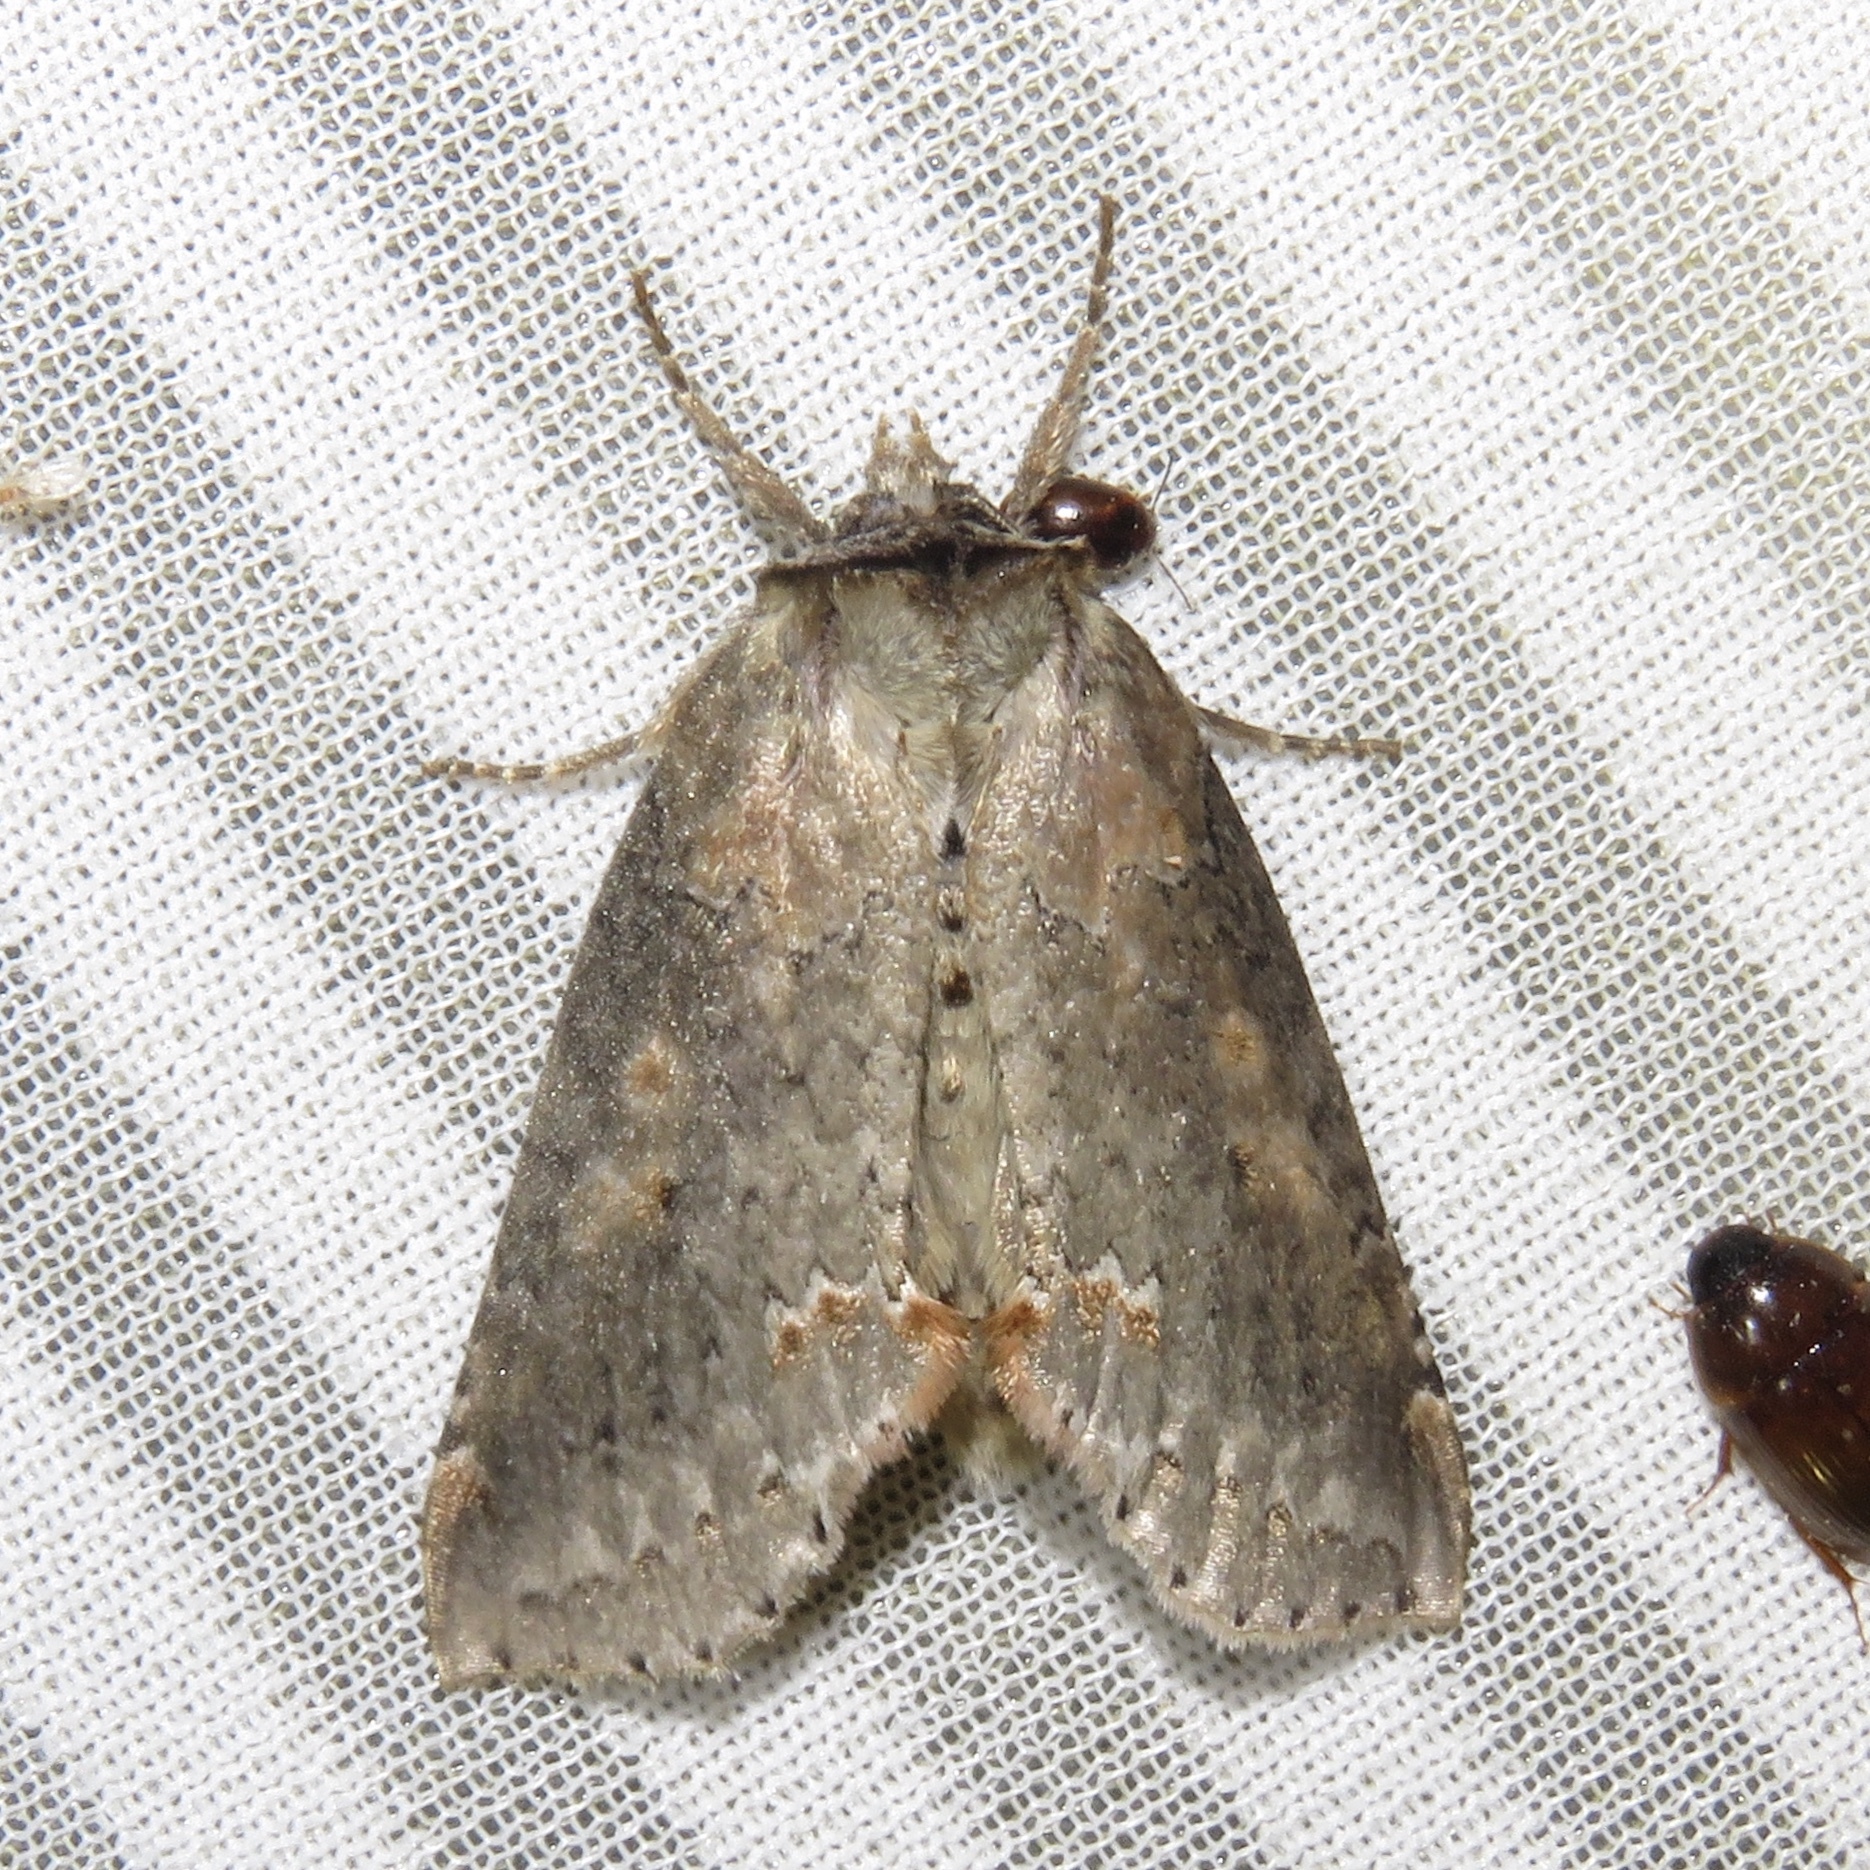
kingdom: Animalia
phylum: Arthropoda
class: Insecta
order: Lepidoptera
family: Drepanidae
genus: Pseudothyatira
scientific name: Pseudothyatira cymatophoroides
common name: Tufted thyatirid moth
